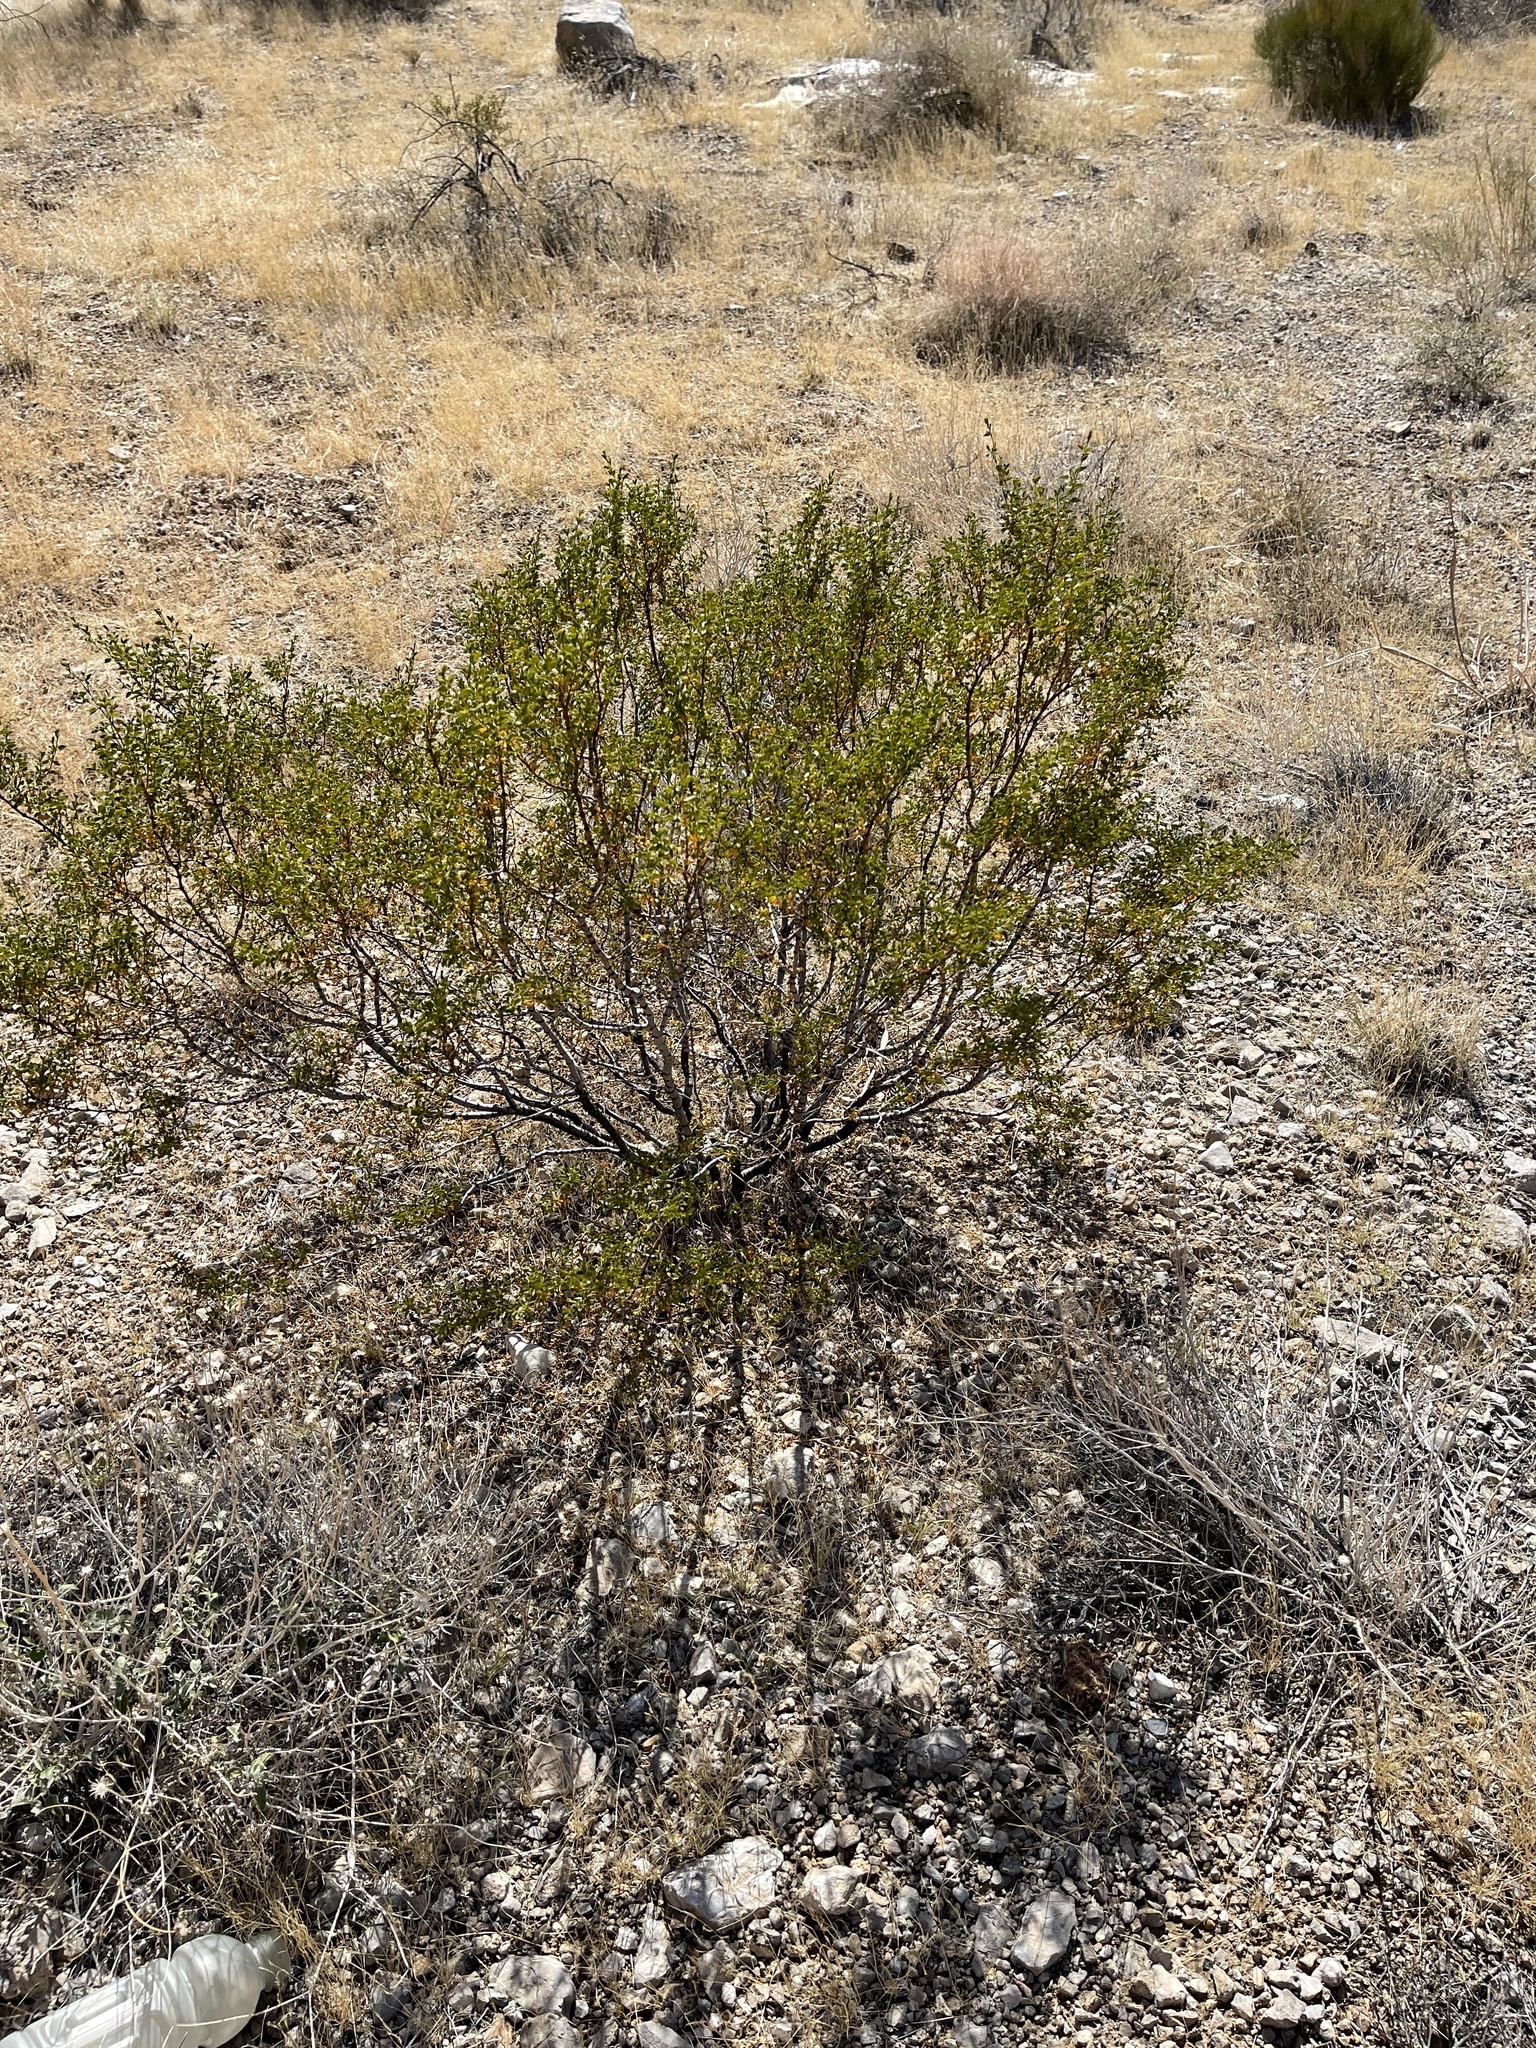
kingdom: Plantae
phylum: Tracheophyta
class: Magnoliopsida
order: Zygophyllales
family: Zygophyllaceae
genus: Larrea
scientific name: Larrea tridentata
